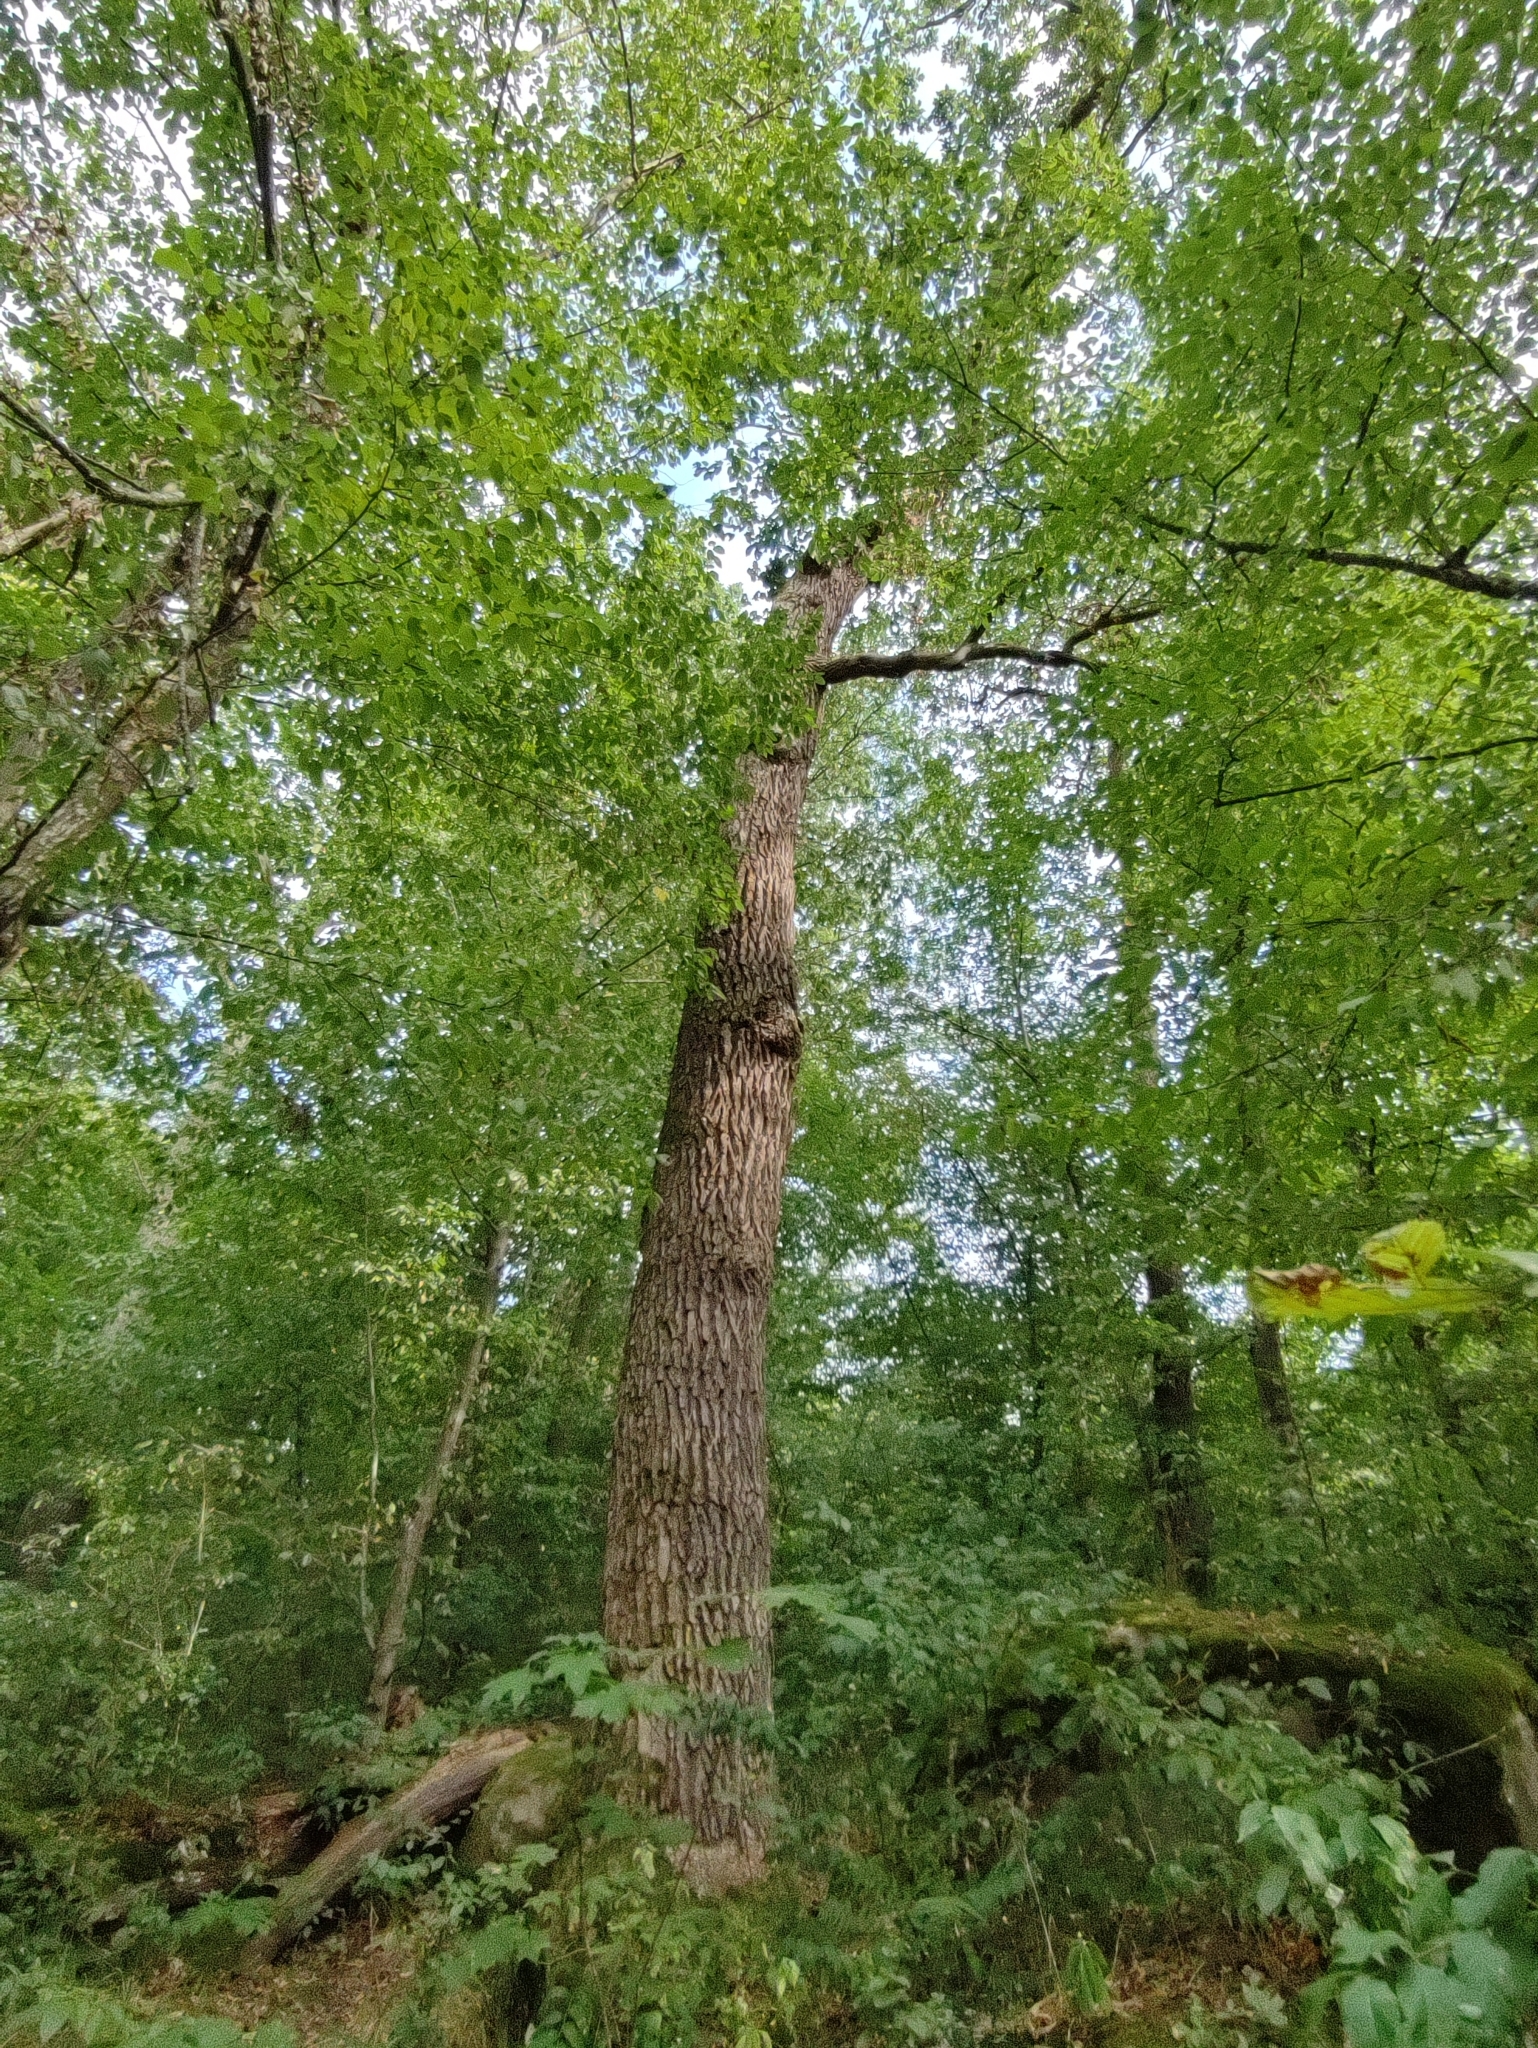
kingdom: Plantae
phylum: Tracheophyta
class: Magnoliopsida
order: Fagales
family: Fagaceae
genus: Quercus
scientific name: Quercus robur
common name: Pedunculate oak
